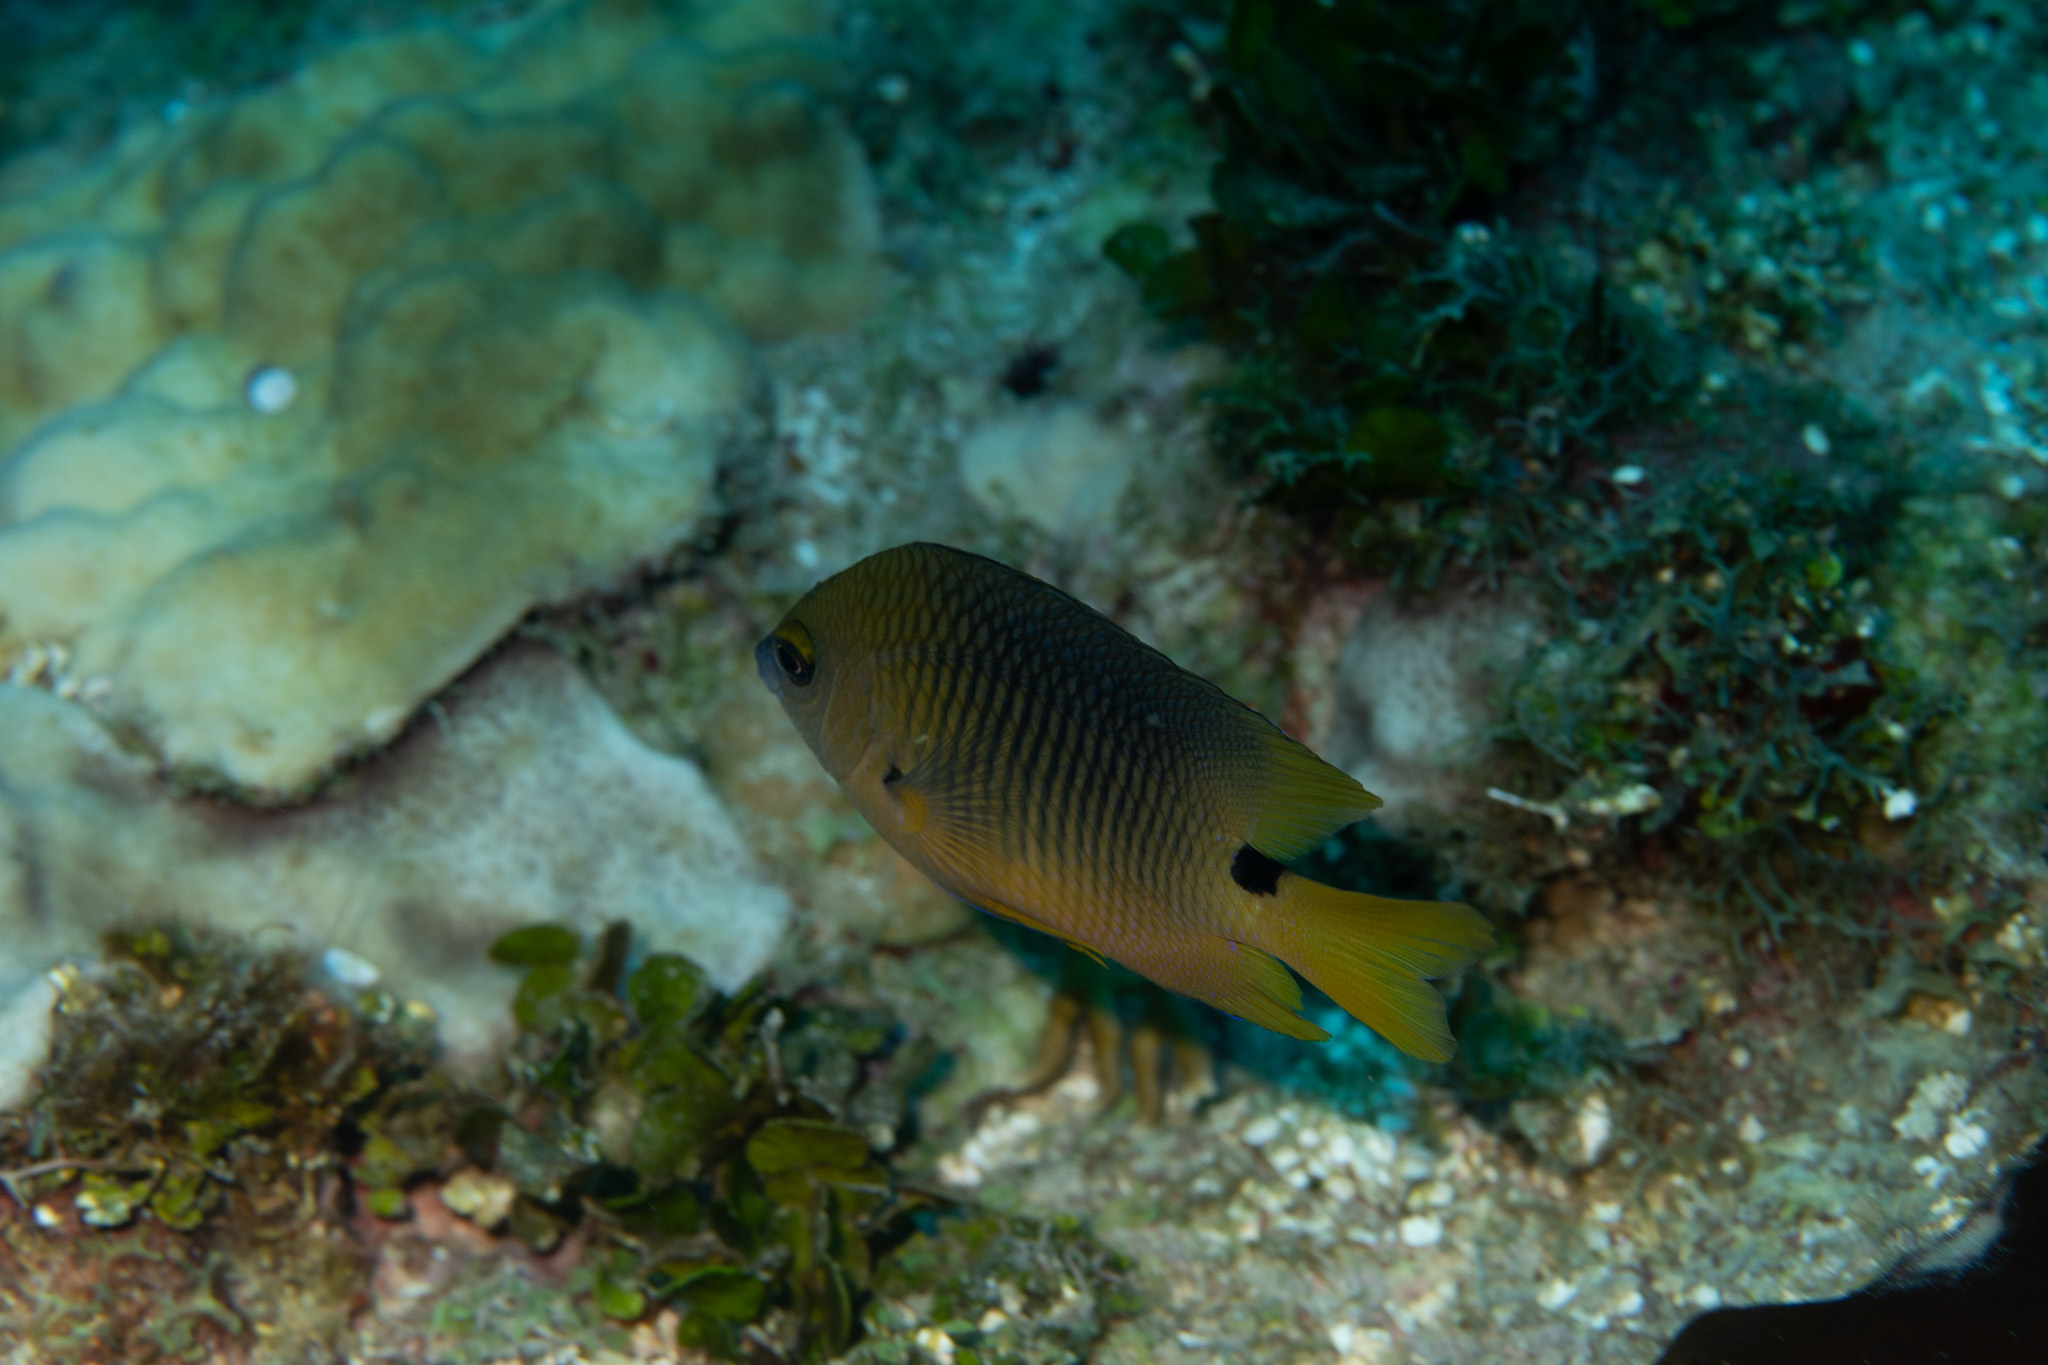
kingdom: Animalia
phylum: Chordata
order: Perciformes
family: Pomacentridae
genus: Stegastes
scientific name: Stegastes planifrons
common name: Threespot damselfish
